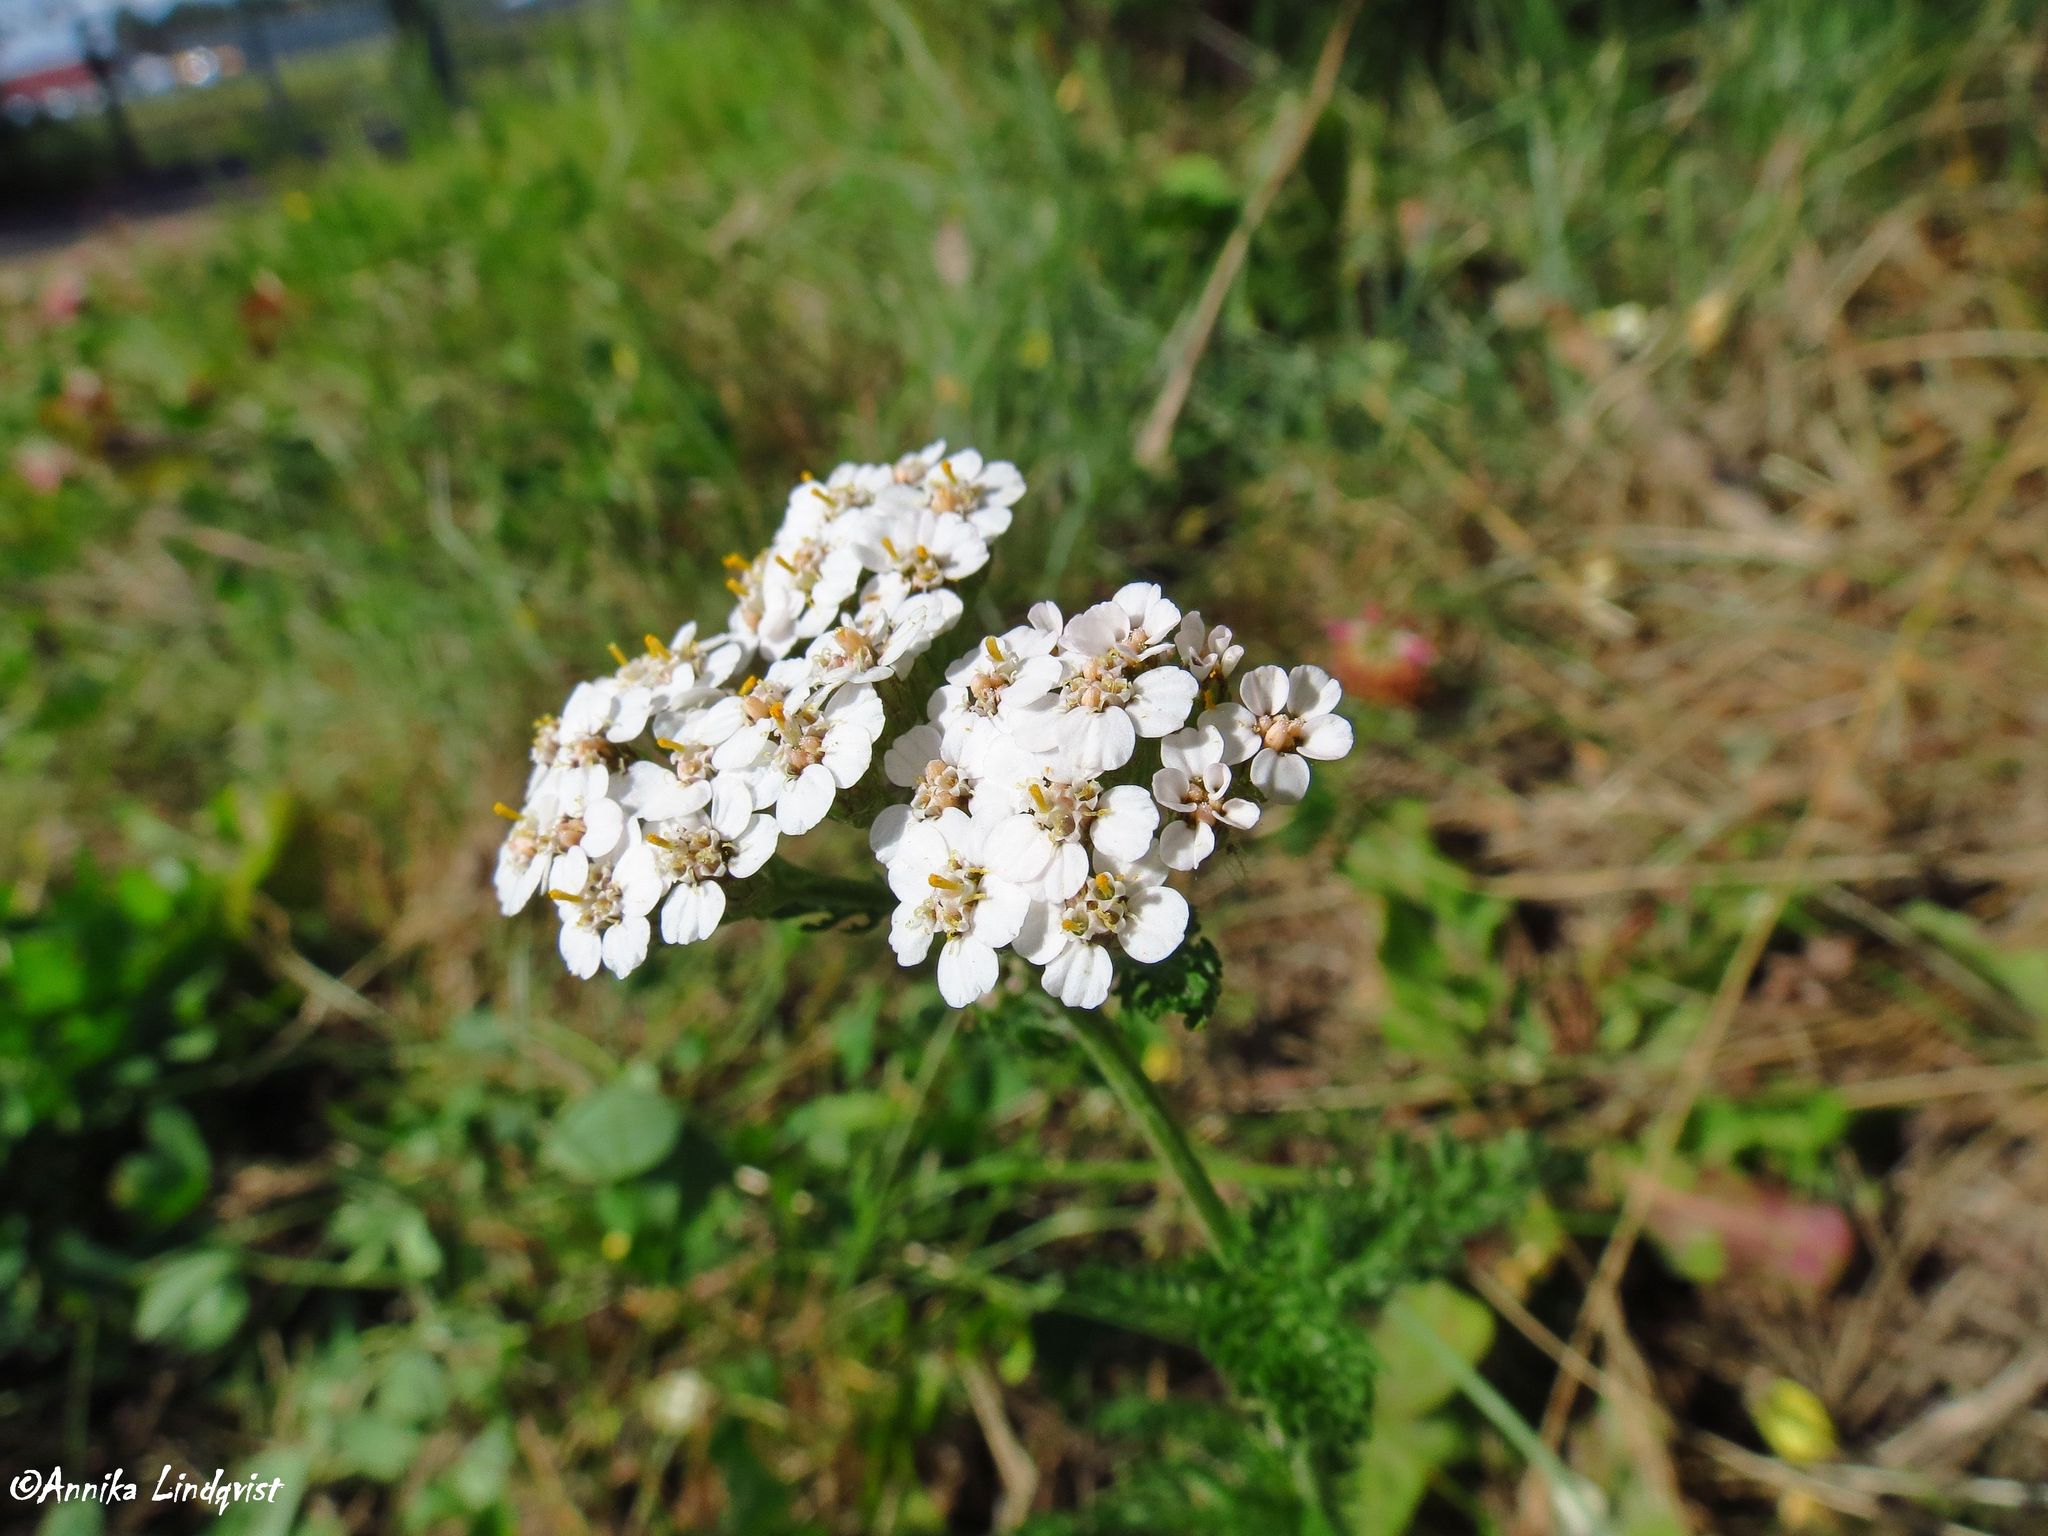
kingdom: Plantae
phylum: Tracheophyta
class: Magnoliopsida
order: Asterales
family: Asteraceae
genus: Achillea
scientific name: Achillea millefolium
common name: Yarrow
